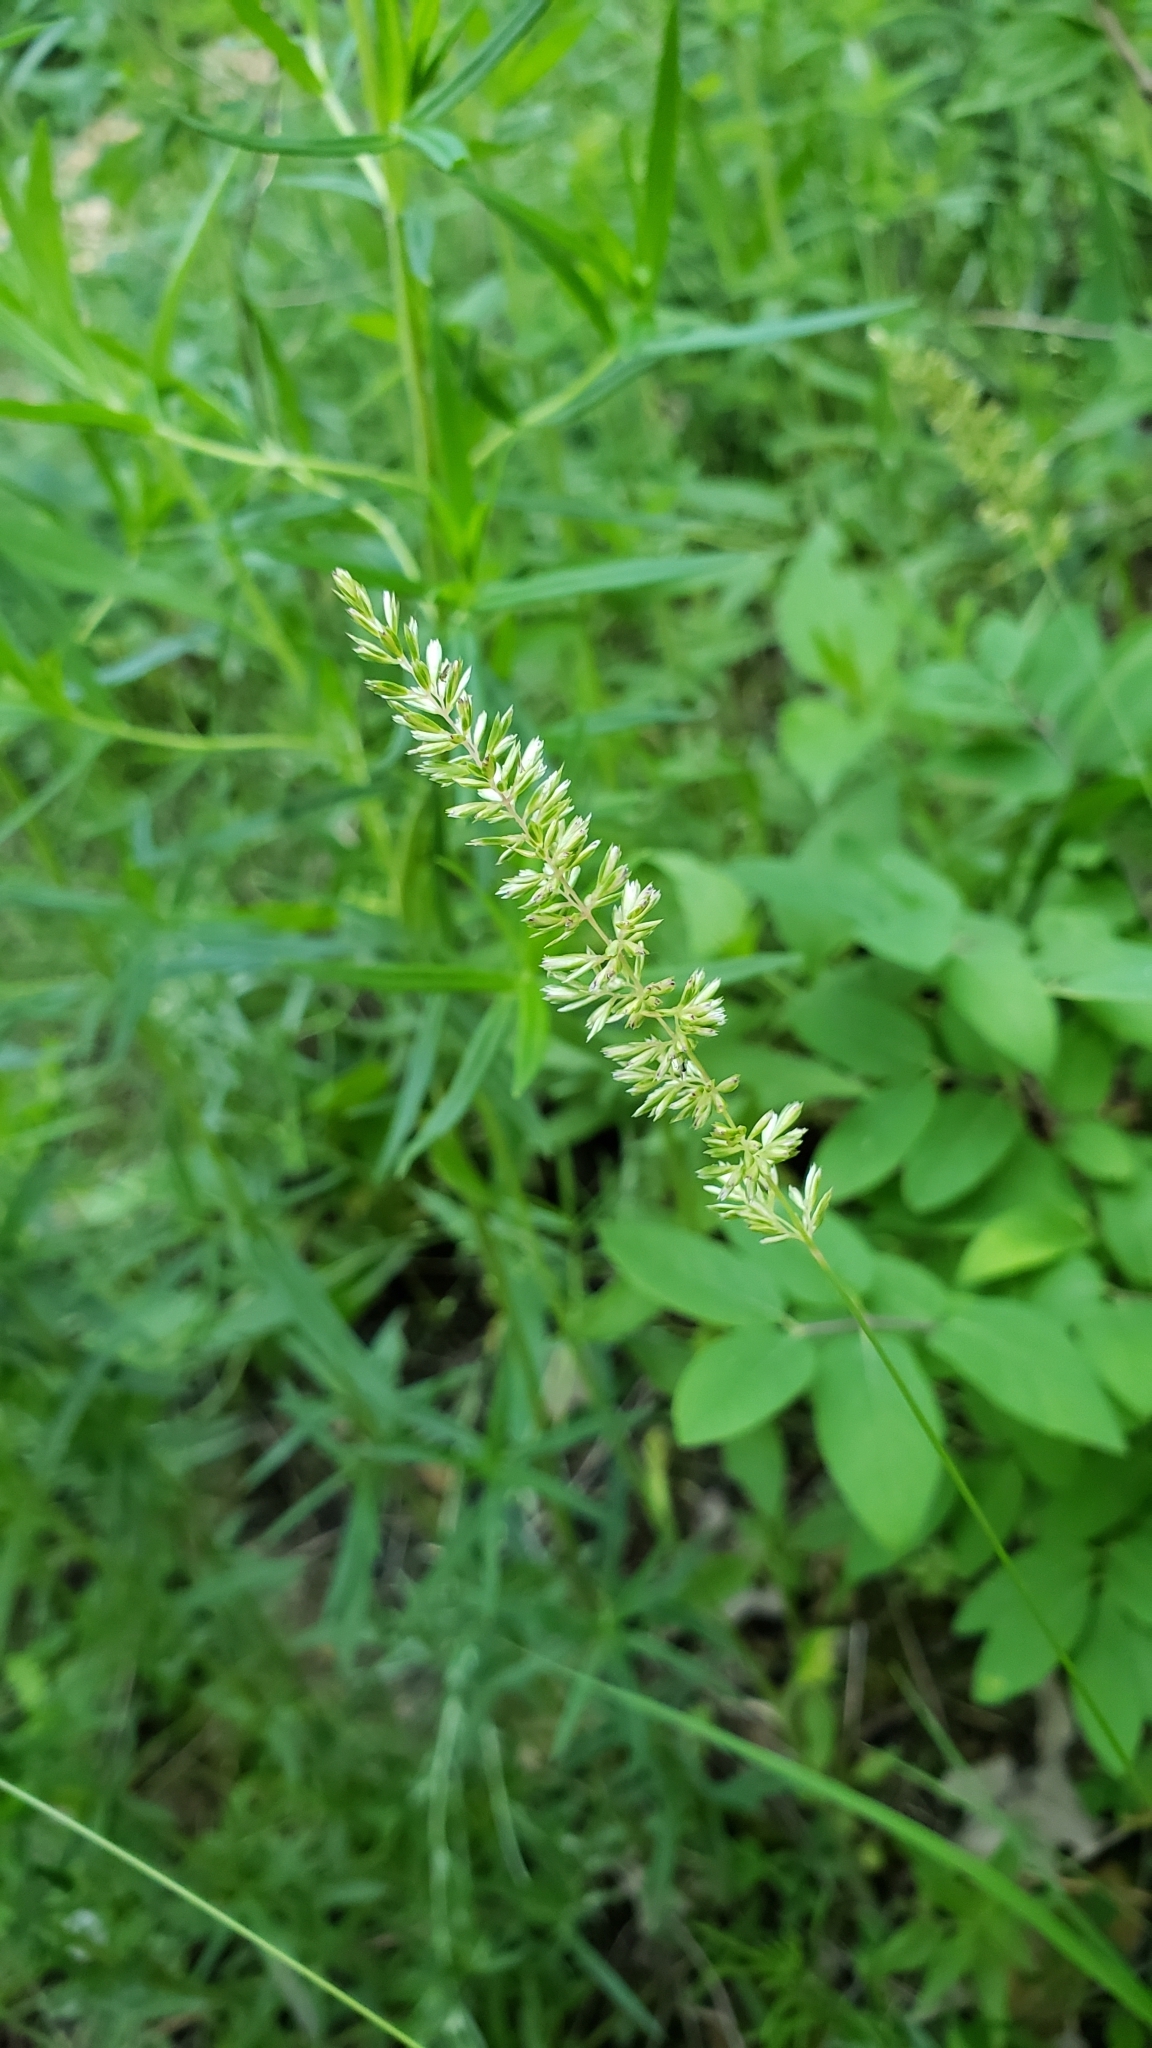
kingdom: Plantae
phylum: Tracheophyta
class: Liliopsida
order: Poales
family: Poaceae
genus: Koeleria
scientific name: Koeleria macrantha
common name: Crested hair-grass
